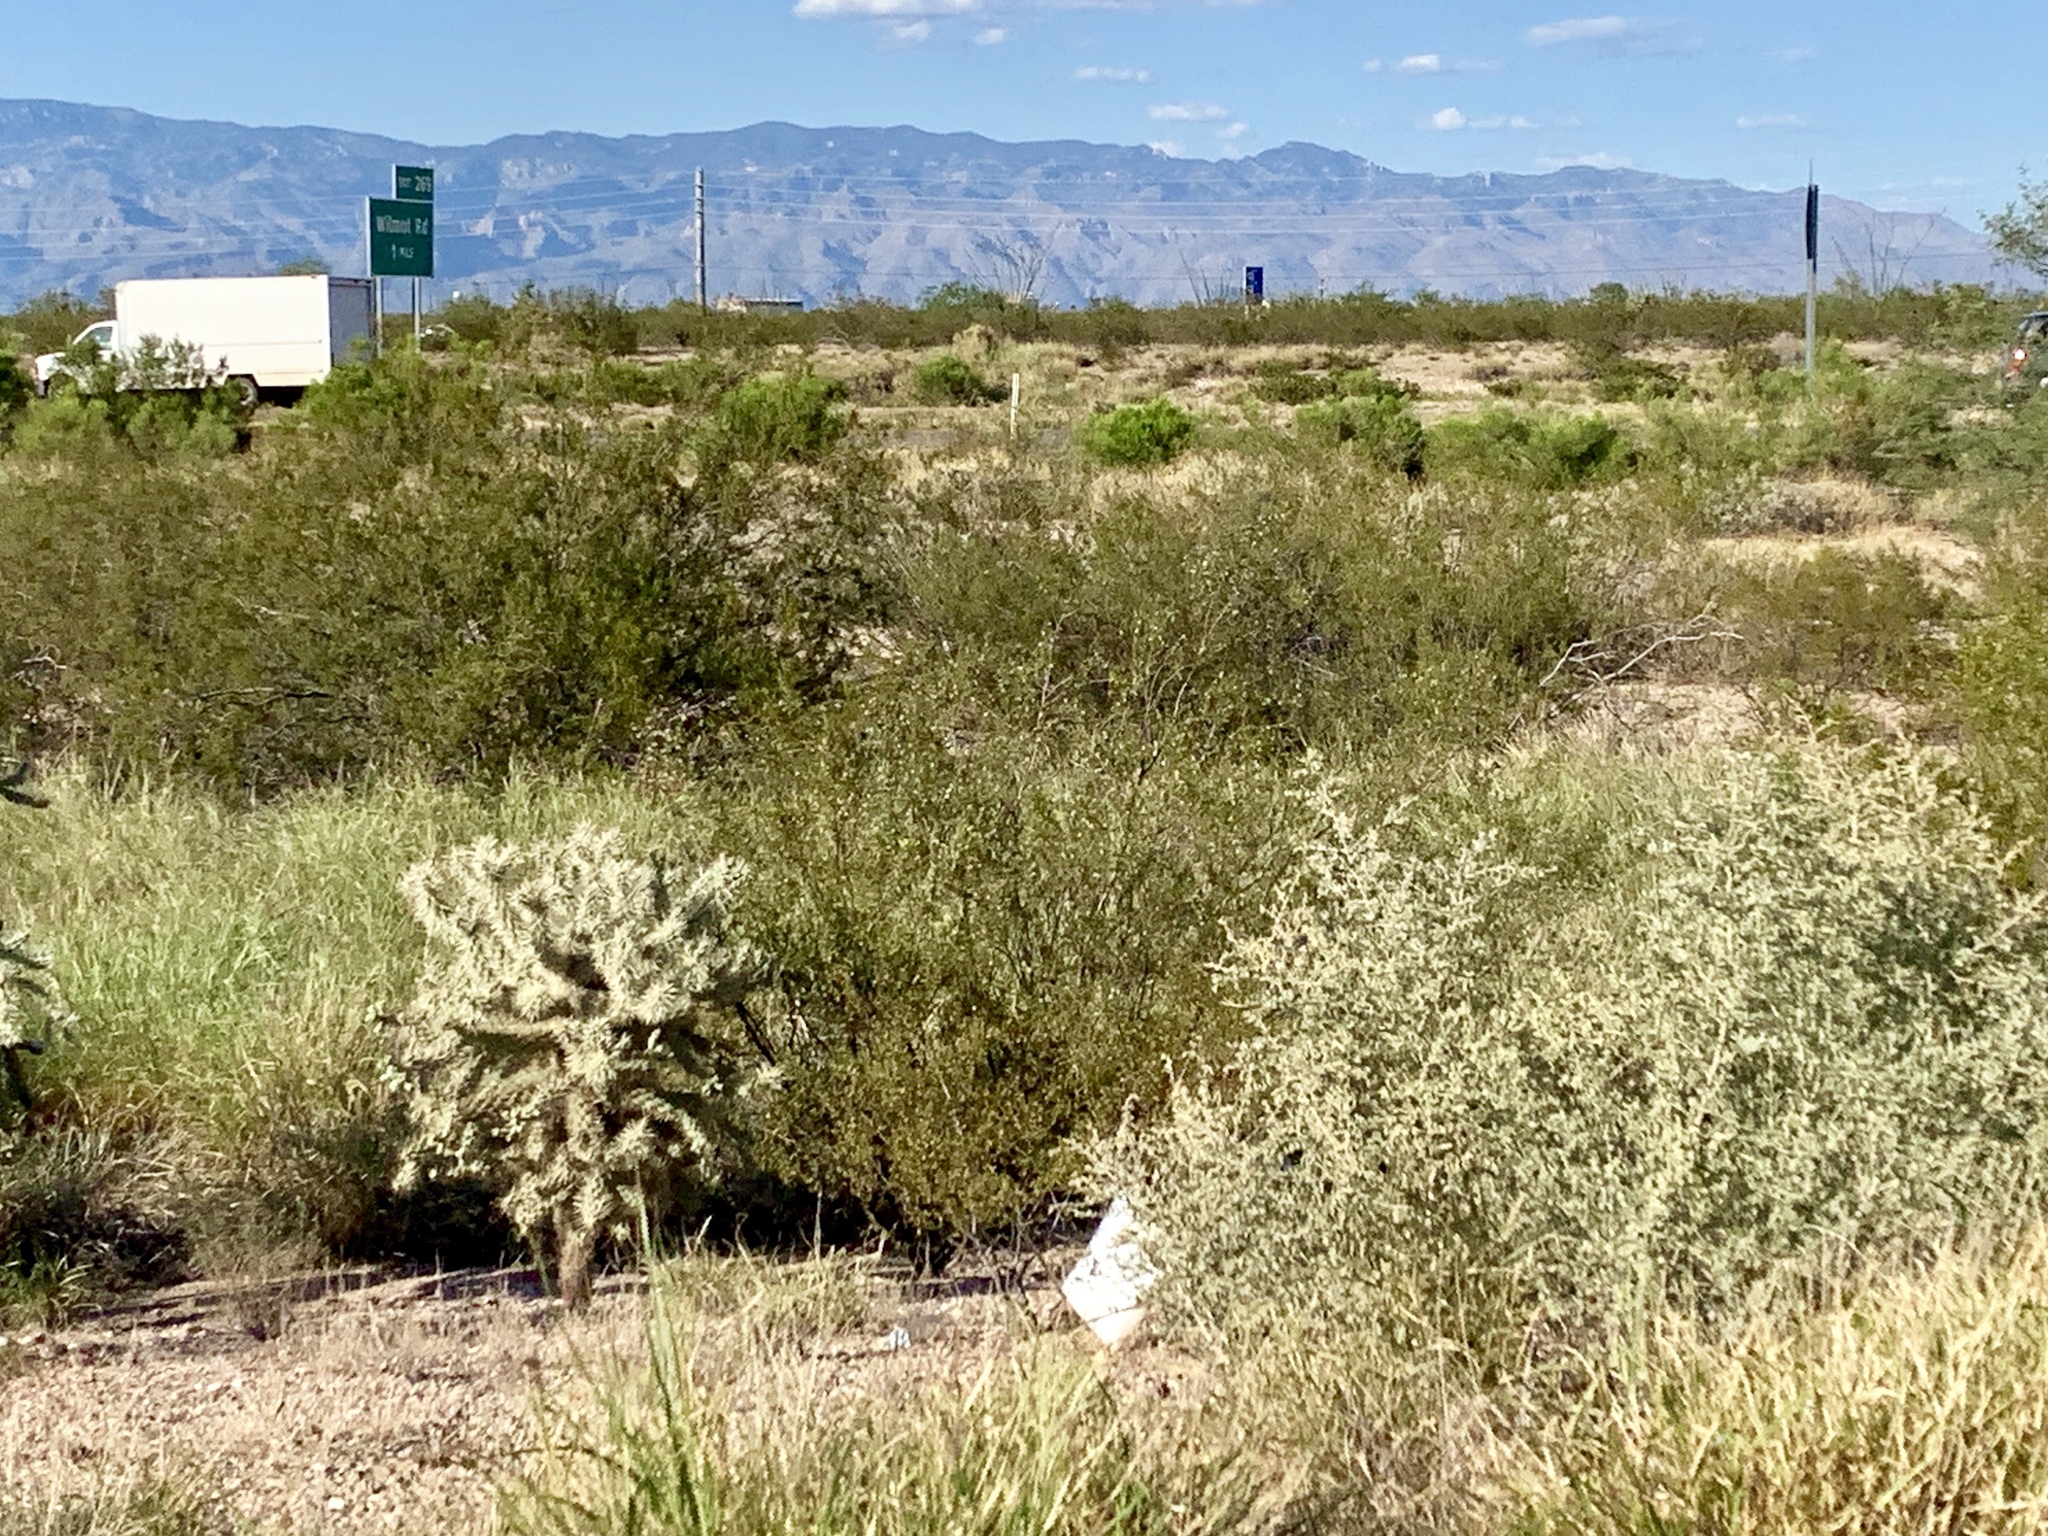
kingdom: Plantae
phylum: Tracheophyta
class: Magnoliopsida
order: Zygophyllales
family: Zygophyllaceae
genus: Larrea
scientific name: Larrea tridentata
